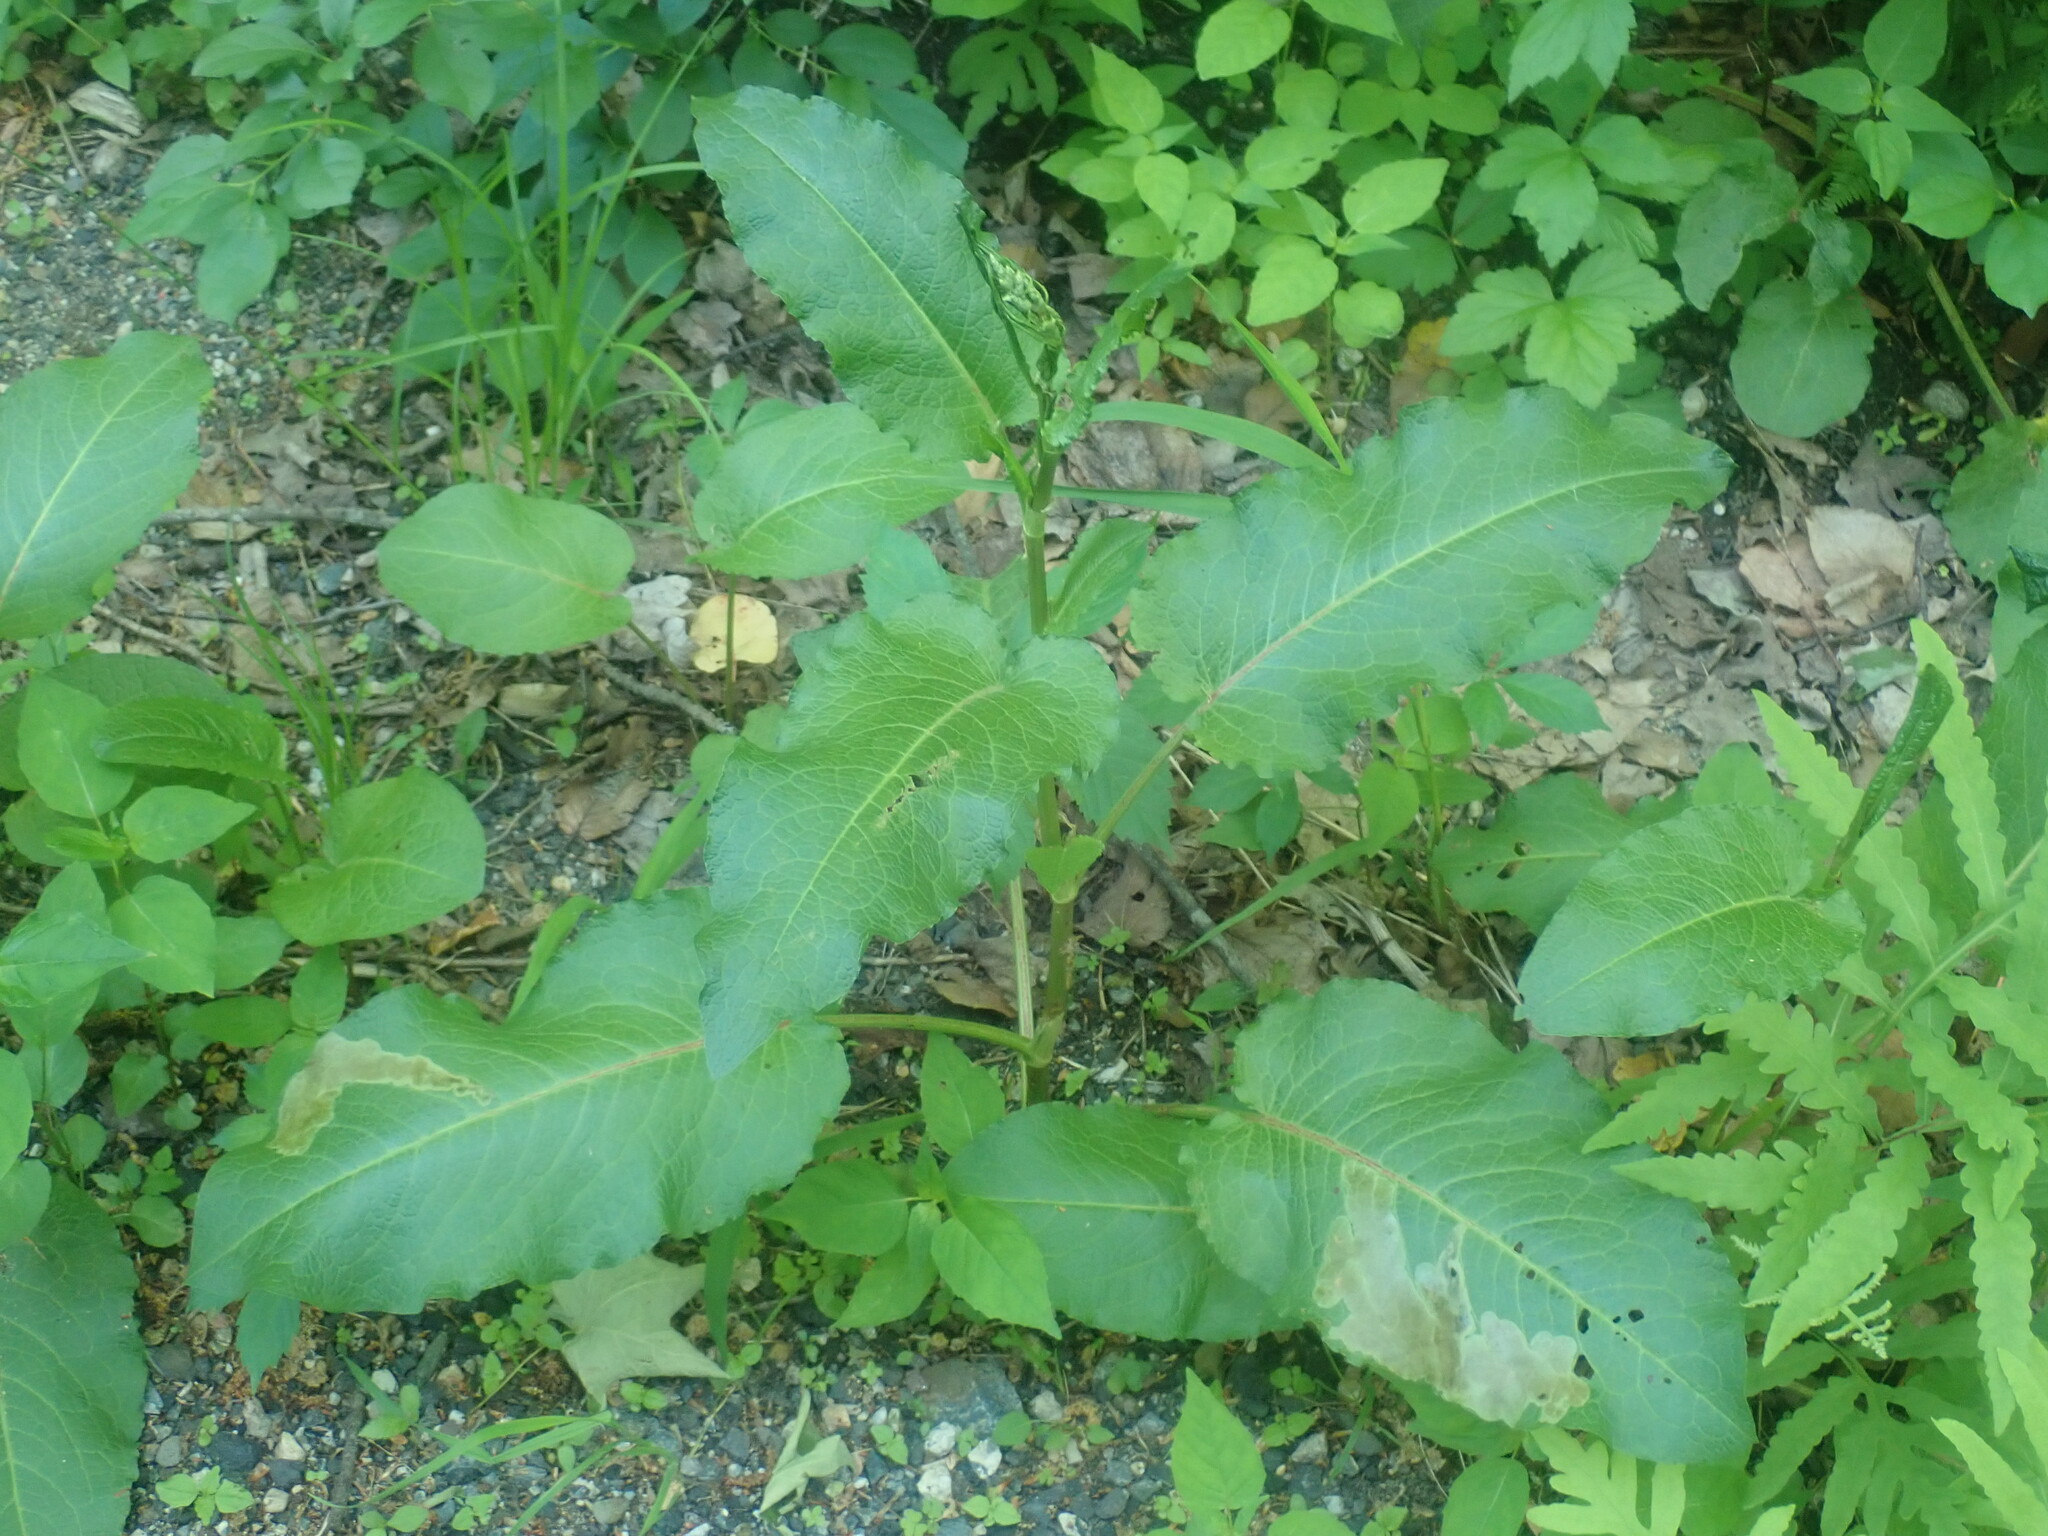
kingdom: Plantae
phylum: Tracheophyta
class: Magnoliopsida
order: Caryophyllales
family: Polygonaceae
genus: Rumex
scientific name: Rumex obtusifolius
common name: Bitter dock
